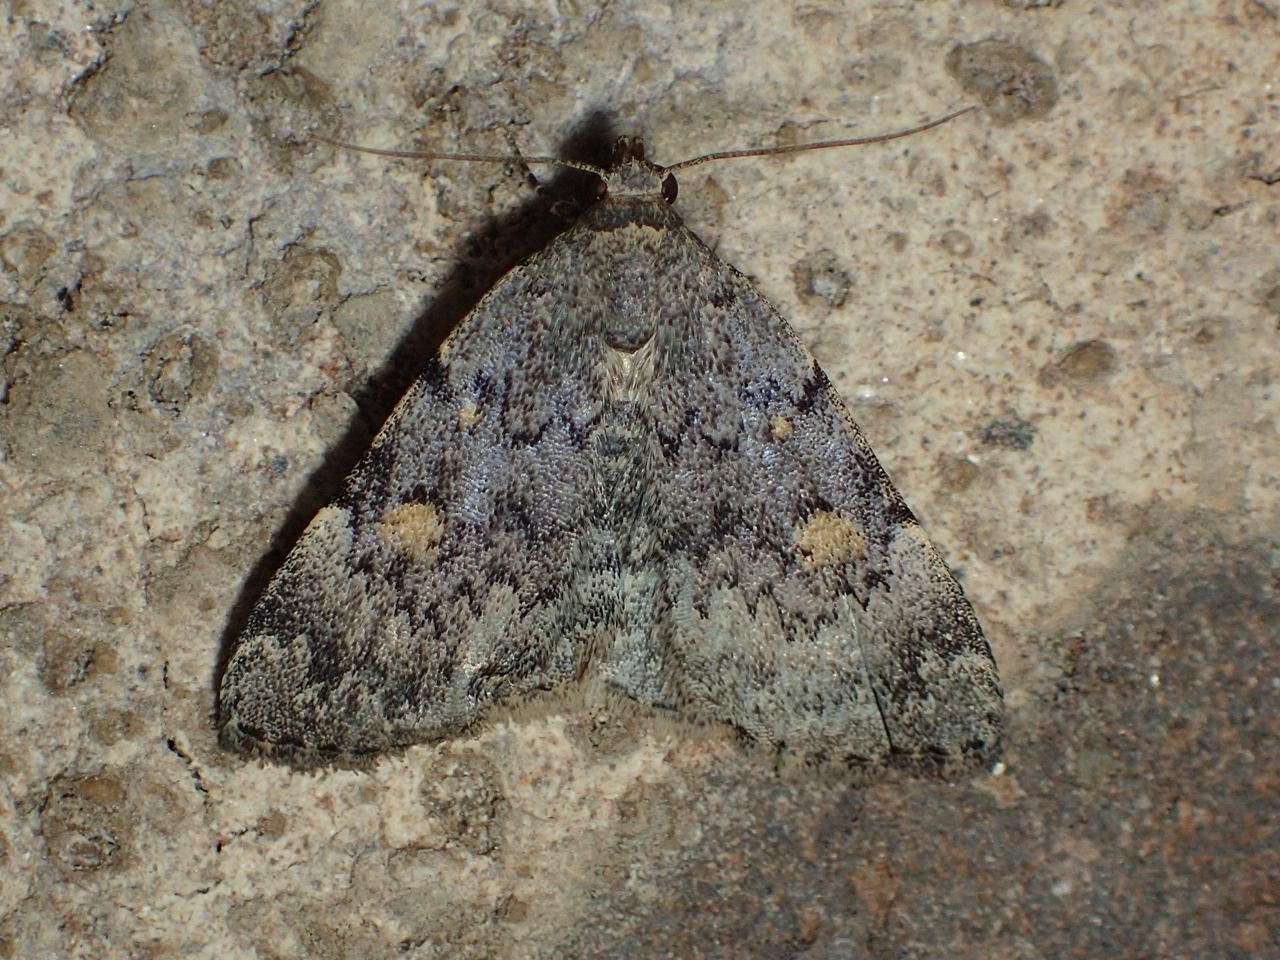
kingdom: Animalia
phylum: Arthropoda
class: Insecta
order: Lepidoptera
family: Erebidae
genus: Idia
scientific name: Idia aemula
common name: Common idia moth
